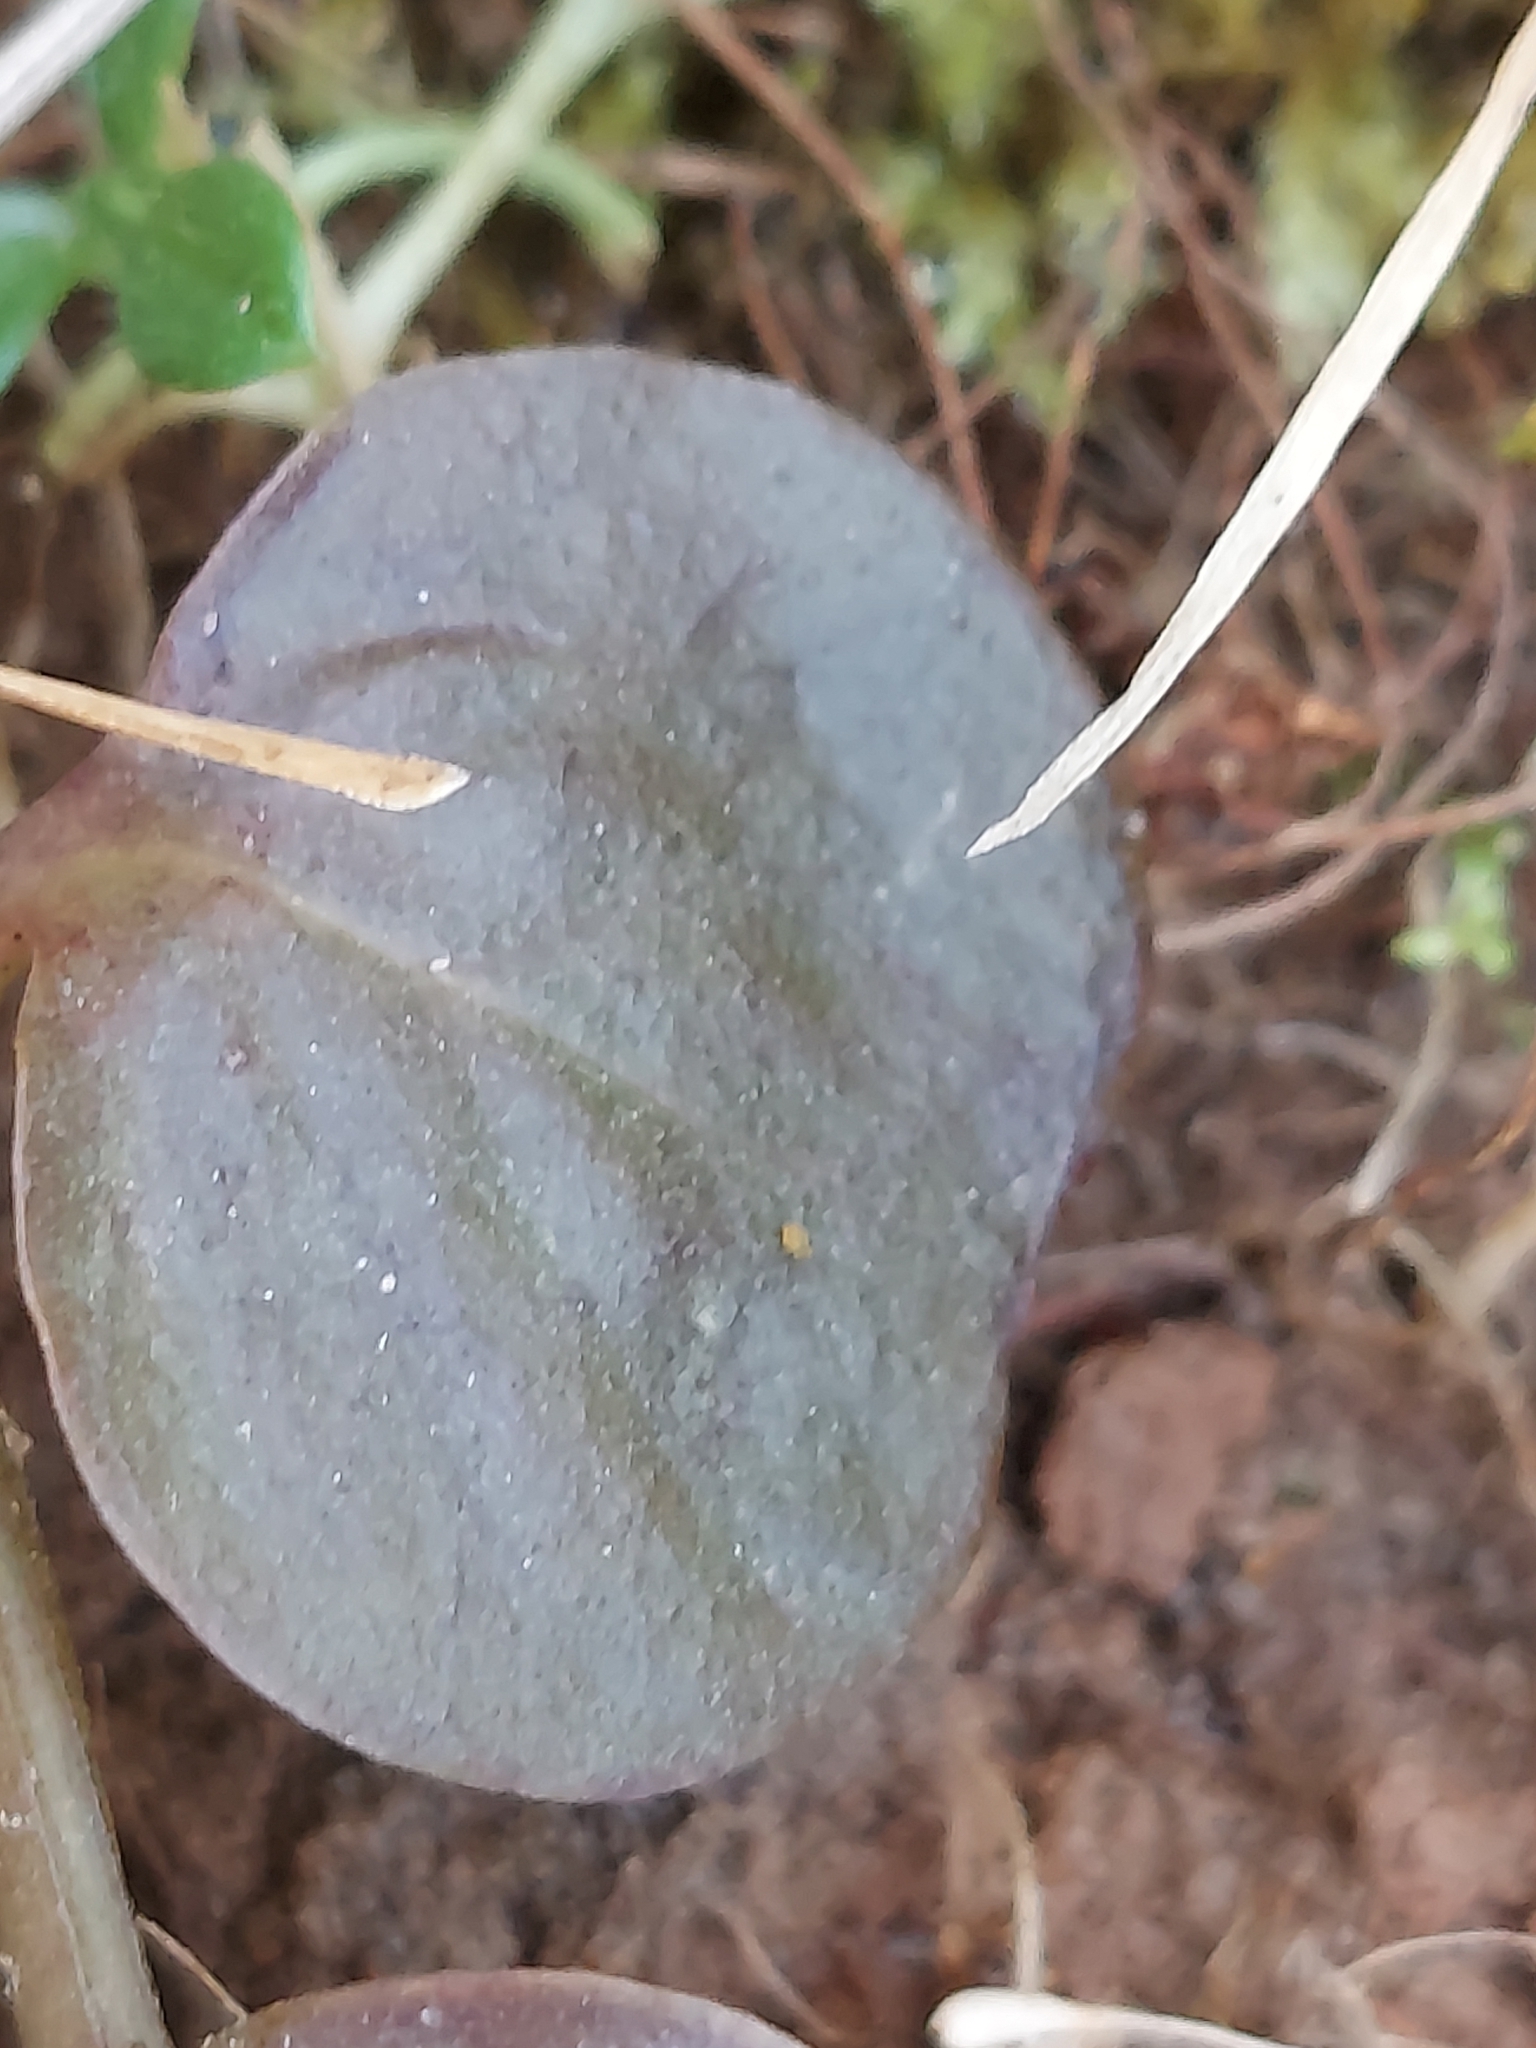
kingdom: Plantae
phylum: Tracheophyta
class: Magnoliopsida
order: Ericales
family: Primulaceae
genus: Lysimachia
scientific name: Lysimachia nummularia
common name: Moneywort
